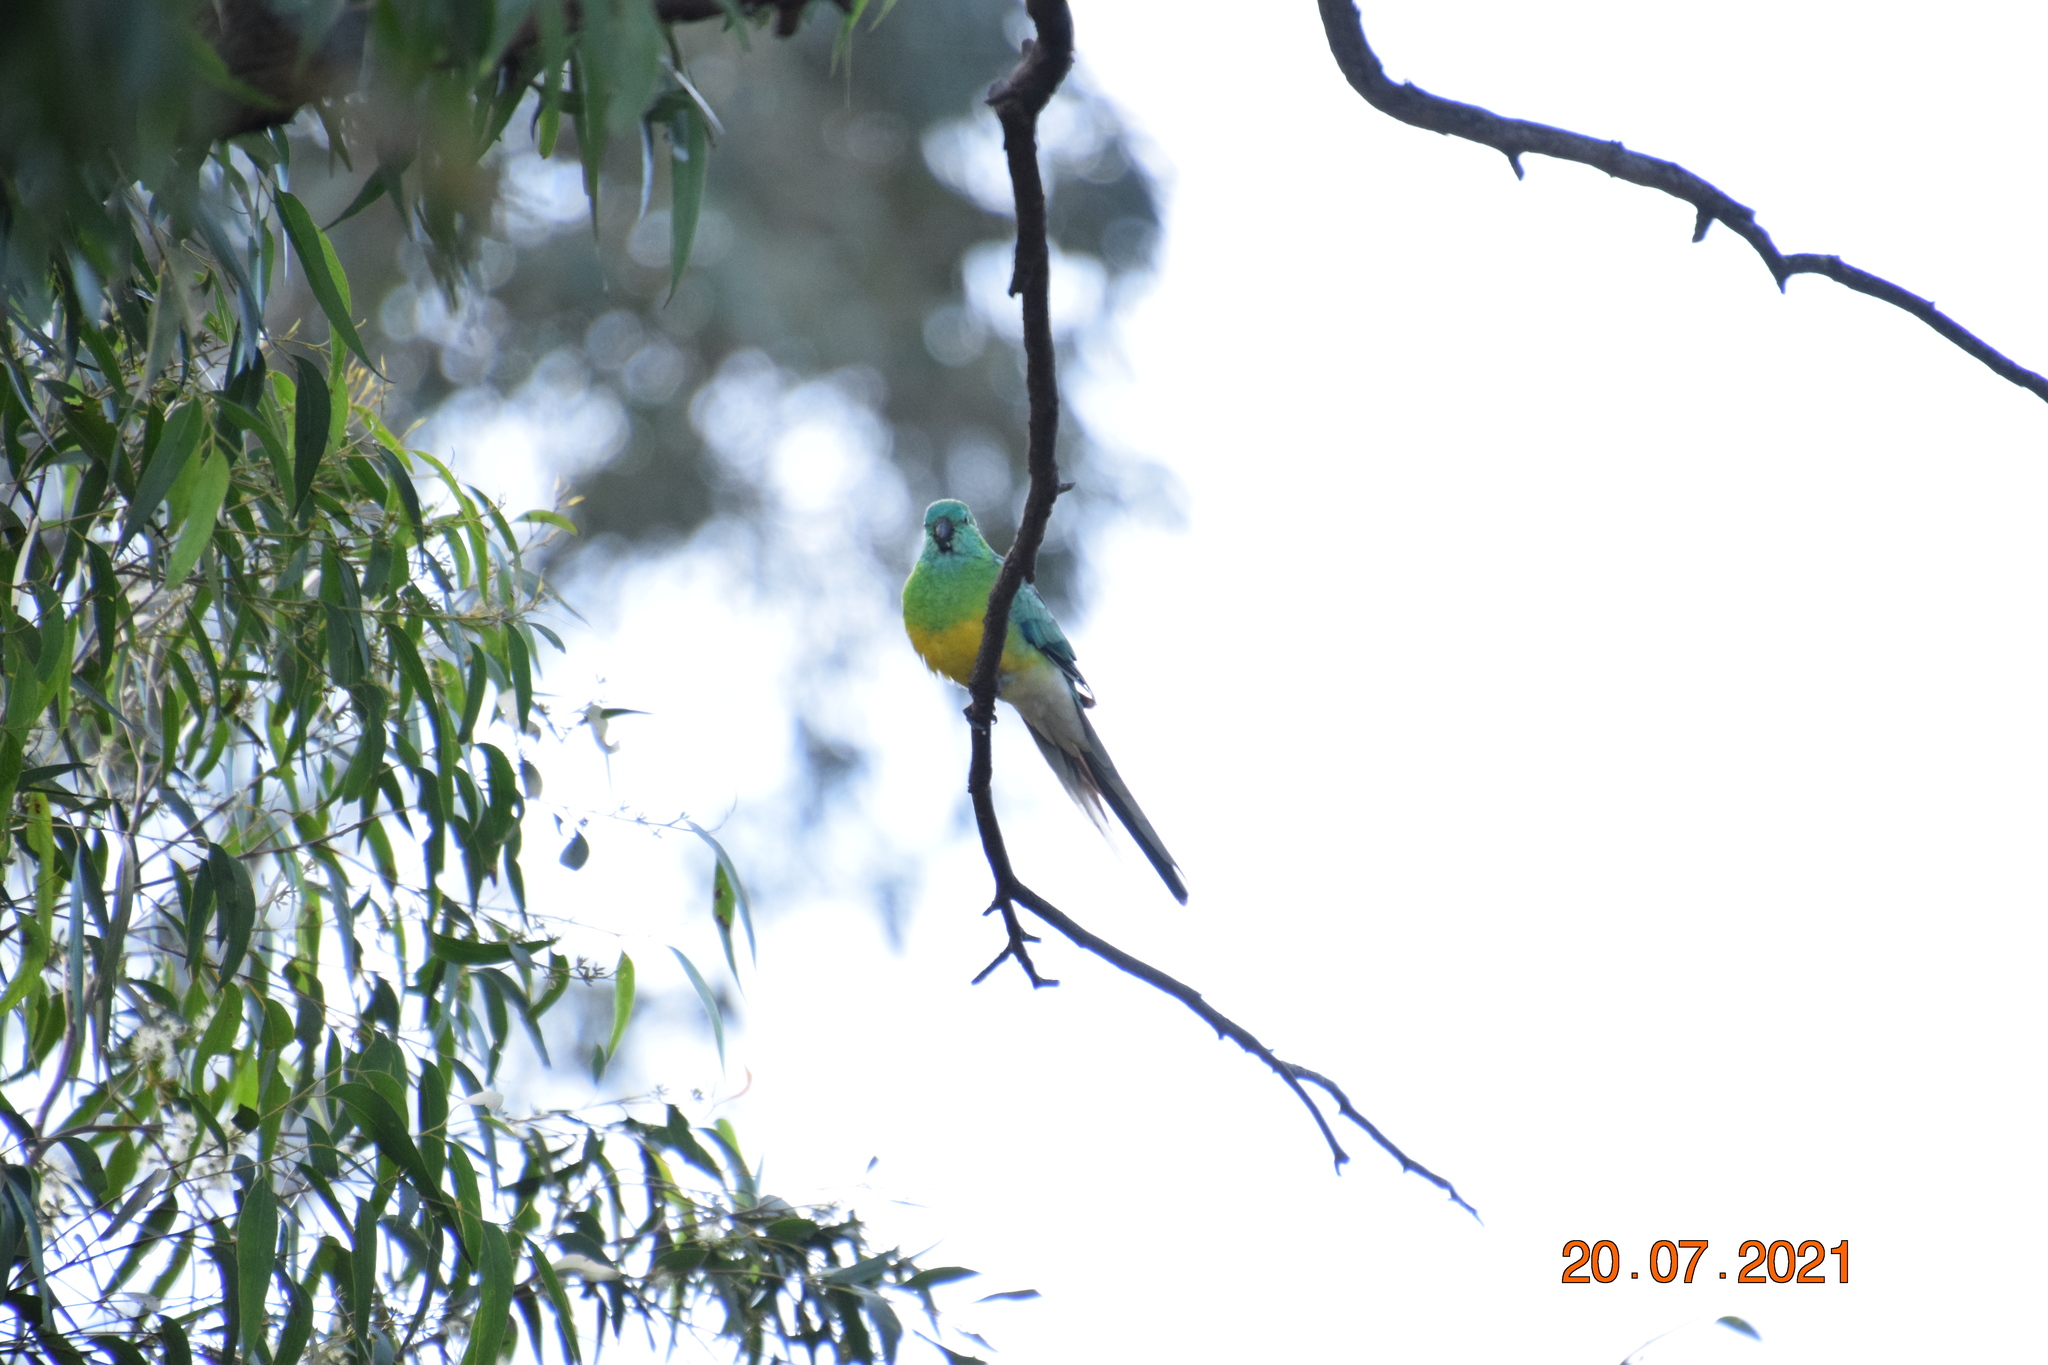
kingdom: Animalia
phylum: Chordata
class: Aves
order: Psittaciformes
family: Psittacidae
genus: Psephotus
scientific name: Psephotus haematonotus
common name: Red-rumped parrot
